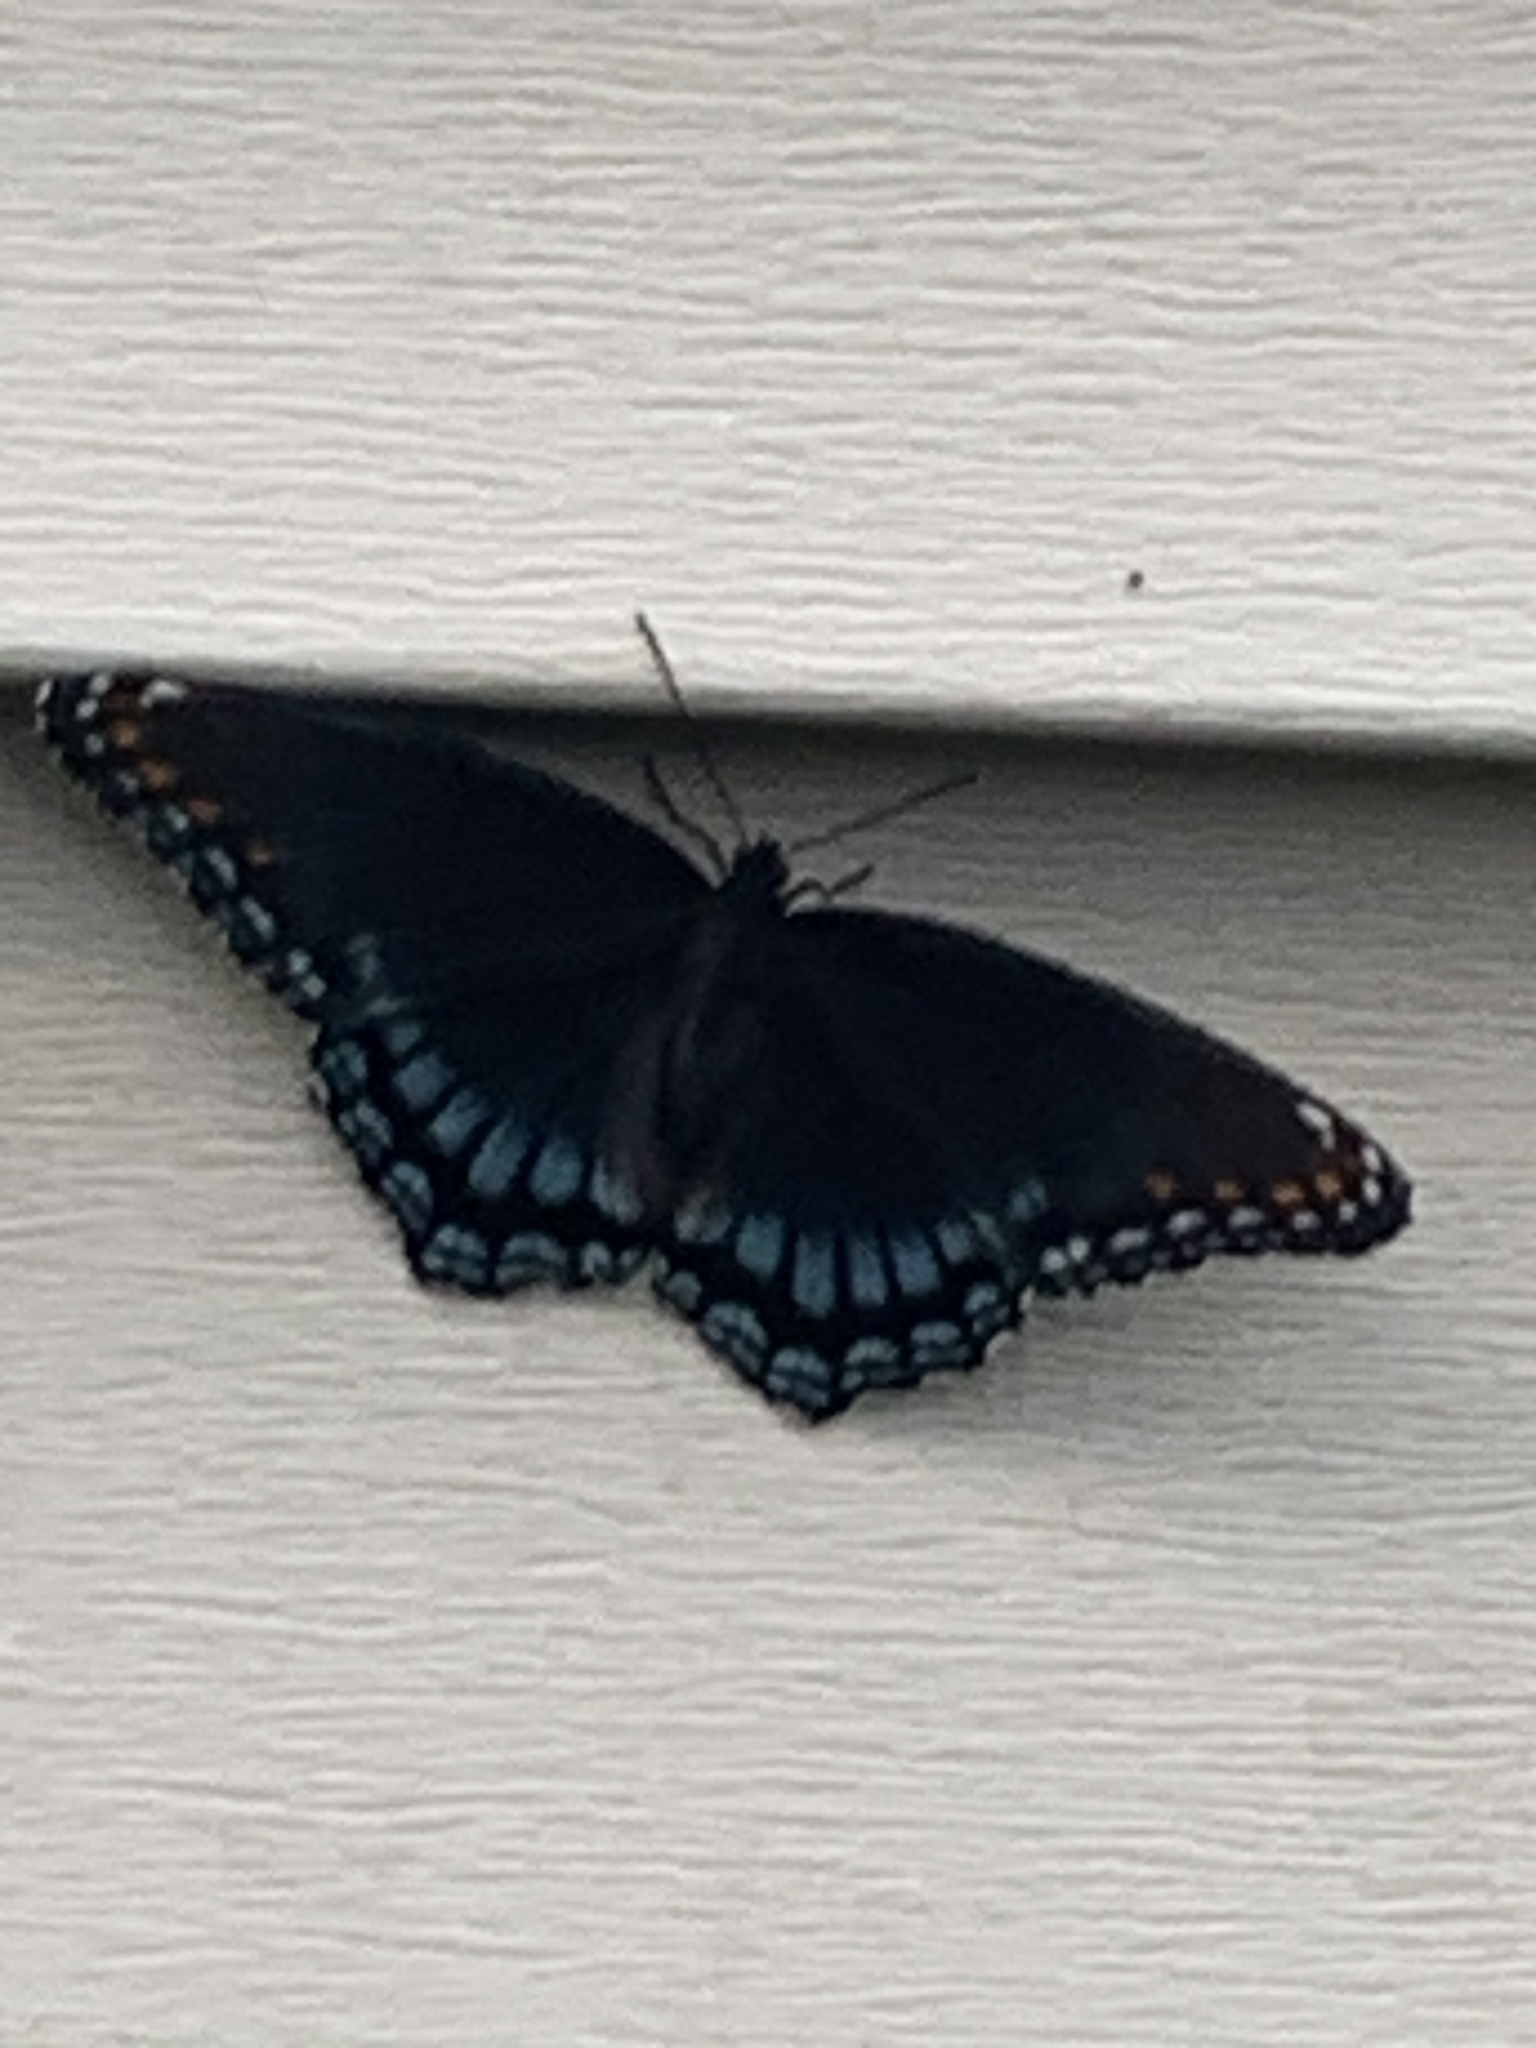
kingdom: Animalia
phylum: Arthropoda
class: Insecta
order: Lepidoptera
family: Nymphalidae
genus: Limenitis
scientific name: Limenitis arthemis
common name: Red-spotted admiral
